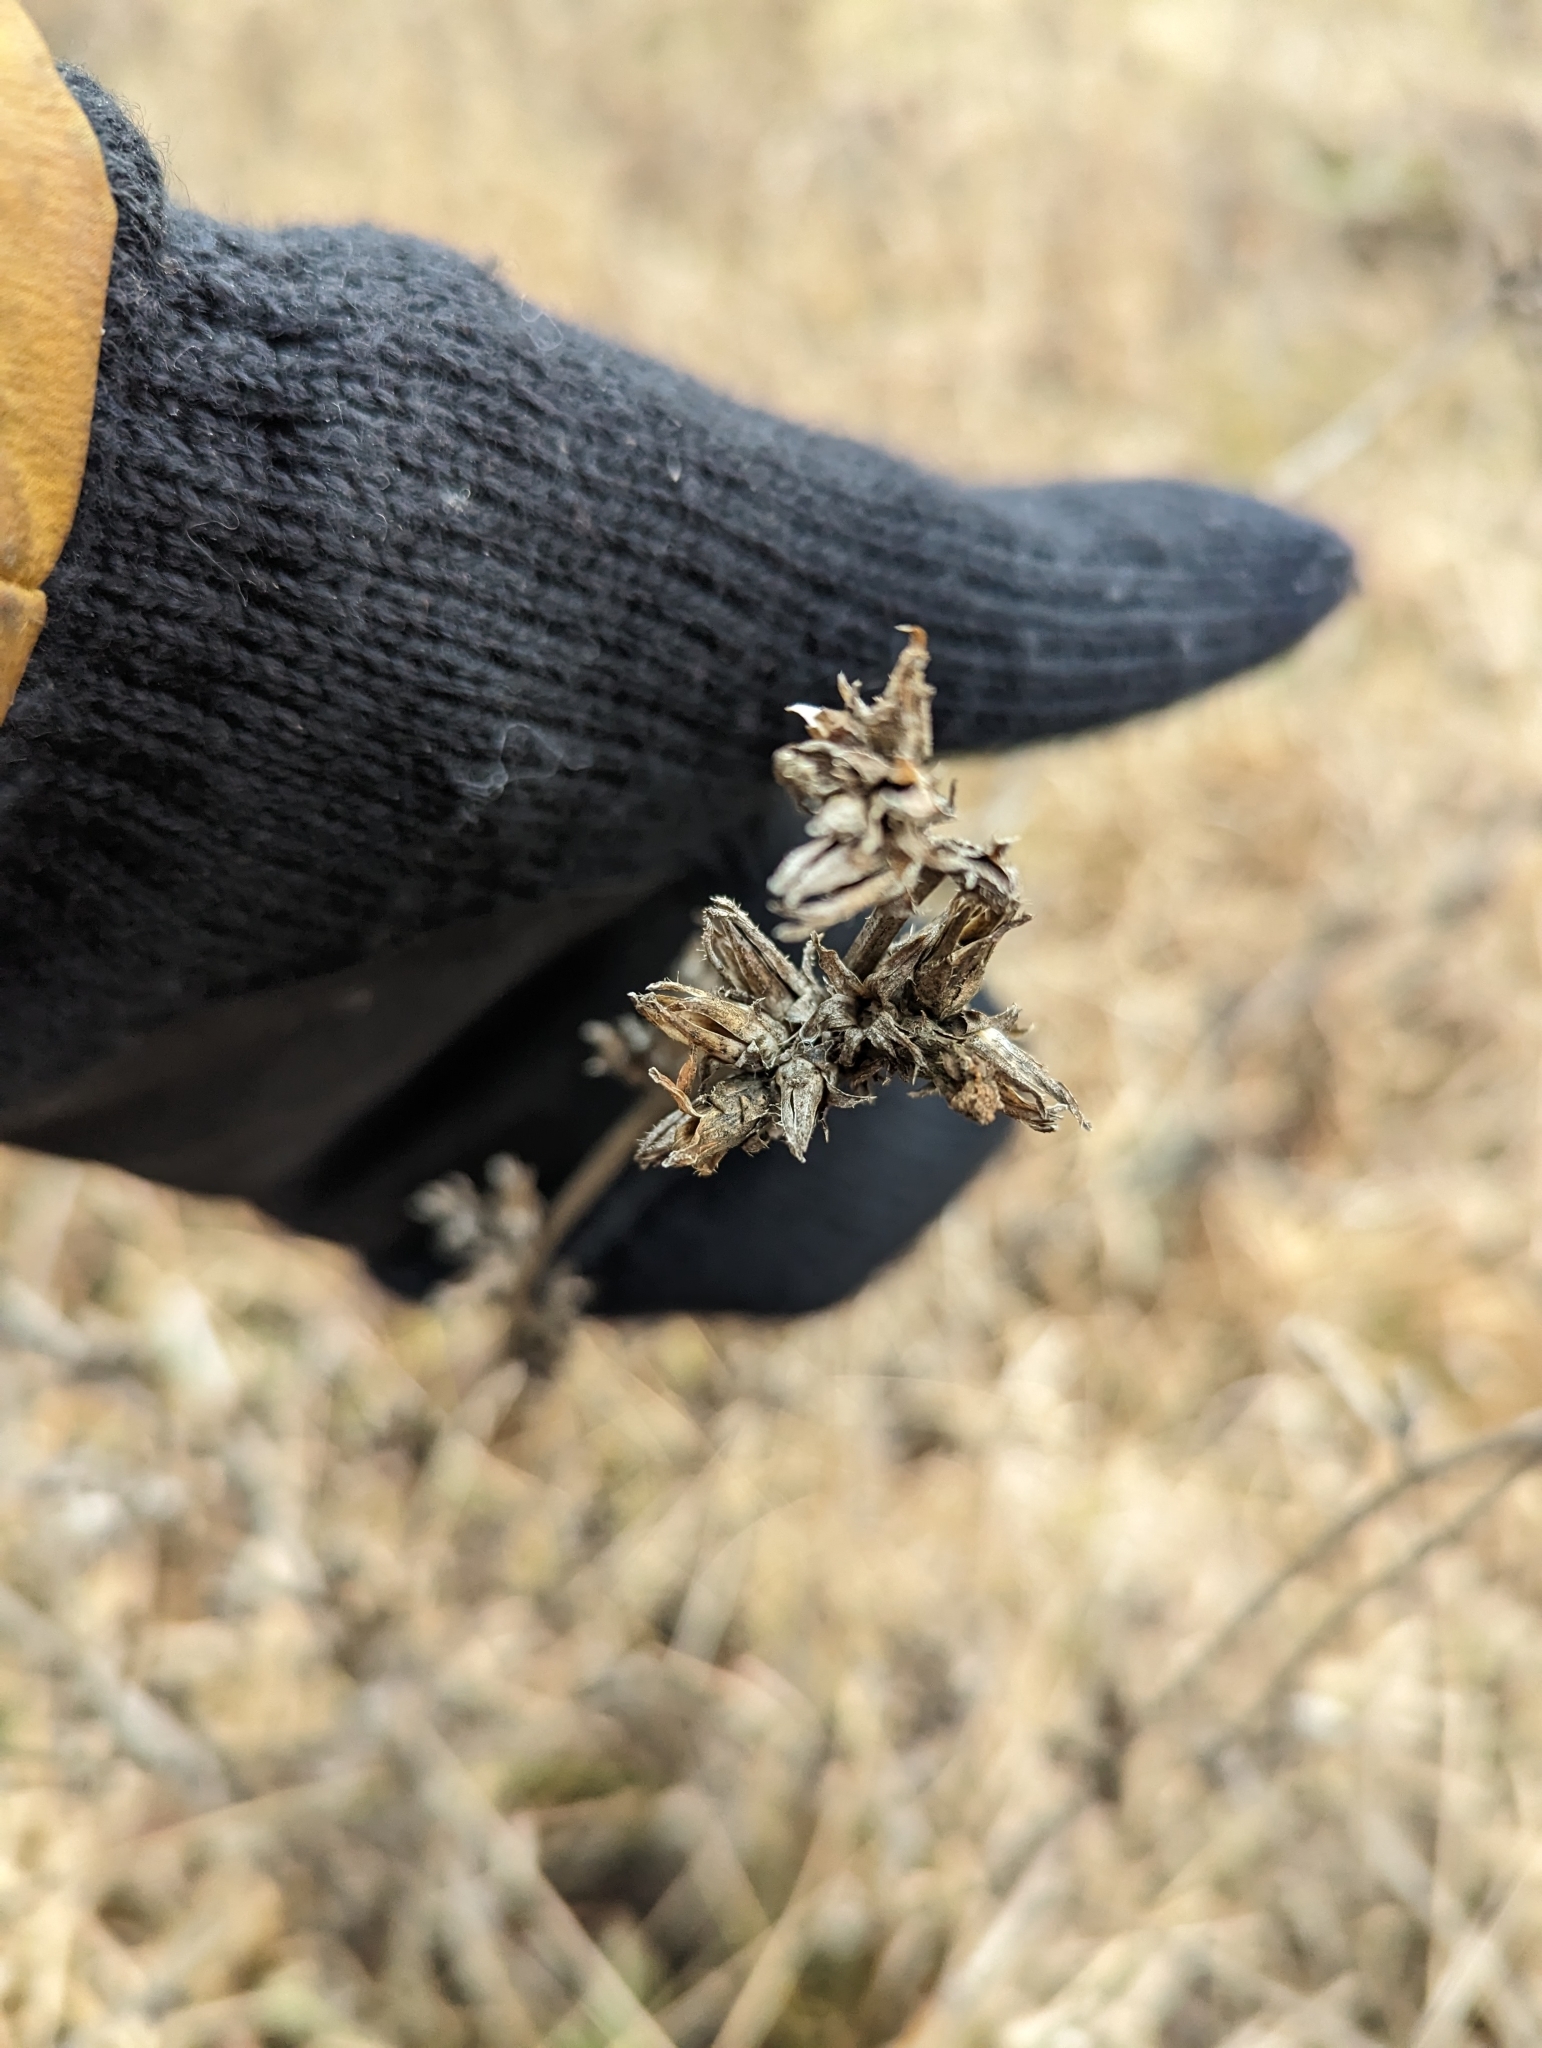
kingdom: Plantae
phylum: Tracheophyta
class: Magnoliopsida
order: Asterales
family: Asteraceae
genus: Cichorium
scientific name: Cichorium intybus
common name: Chicory
